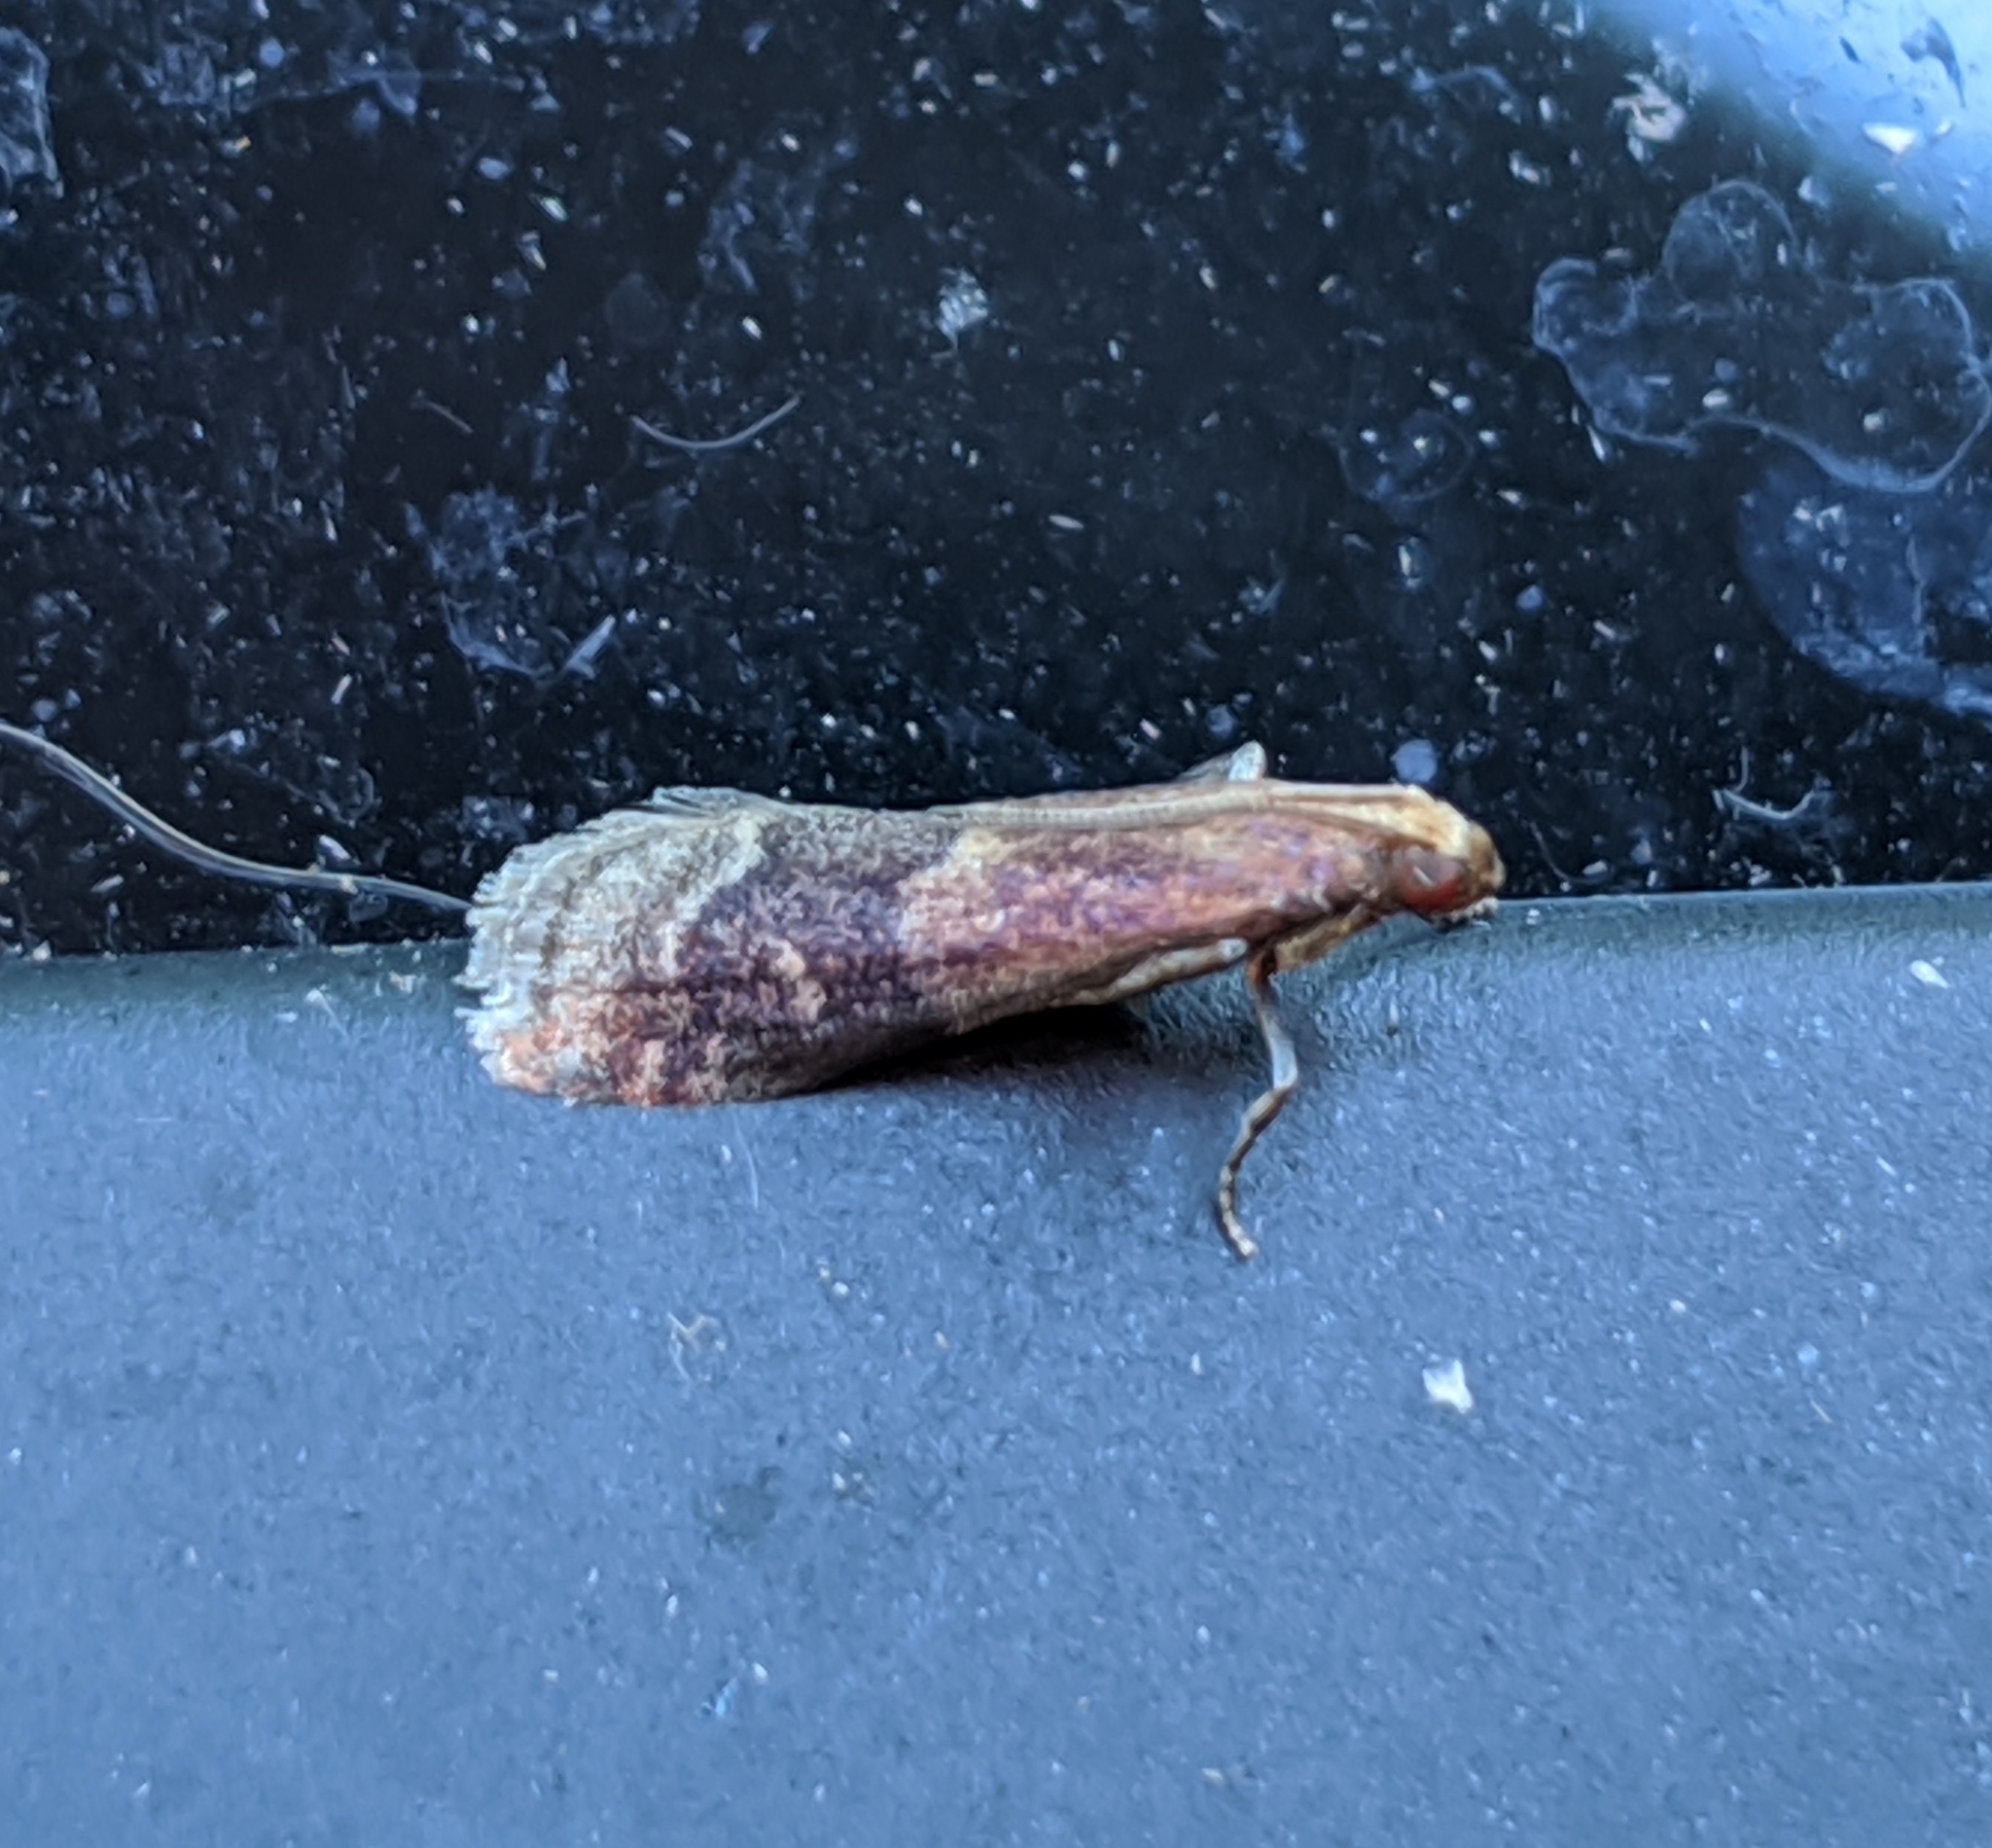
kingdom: Animalia
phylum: Arthropoda
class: Insecta
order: Lepidoptera
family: Pyralidae
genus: Eulogia
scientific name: Eulogia ochrifrontella
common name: Broad-banded eulogia moth
